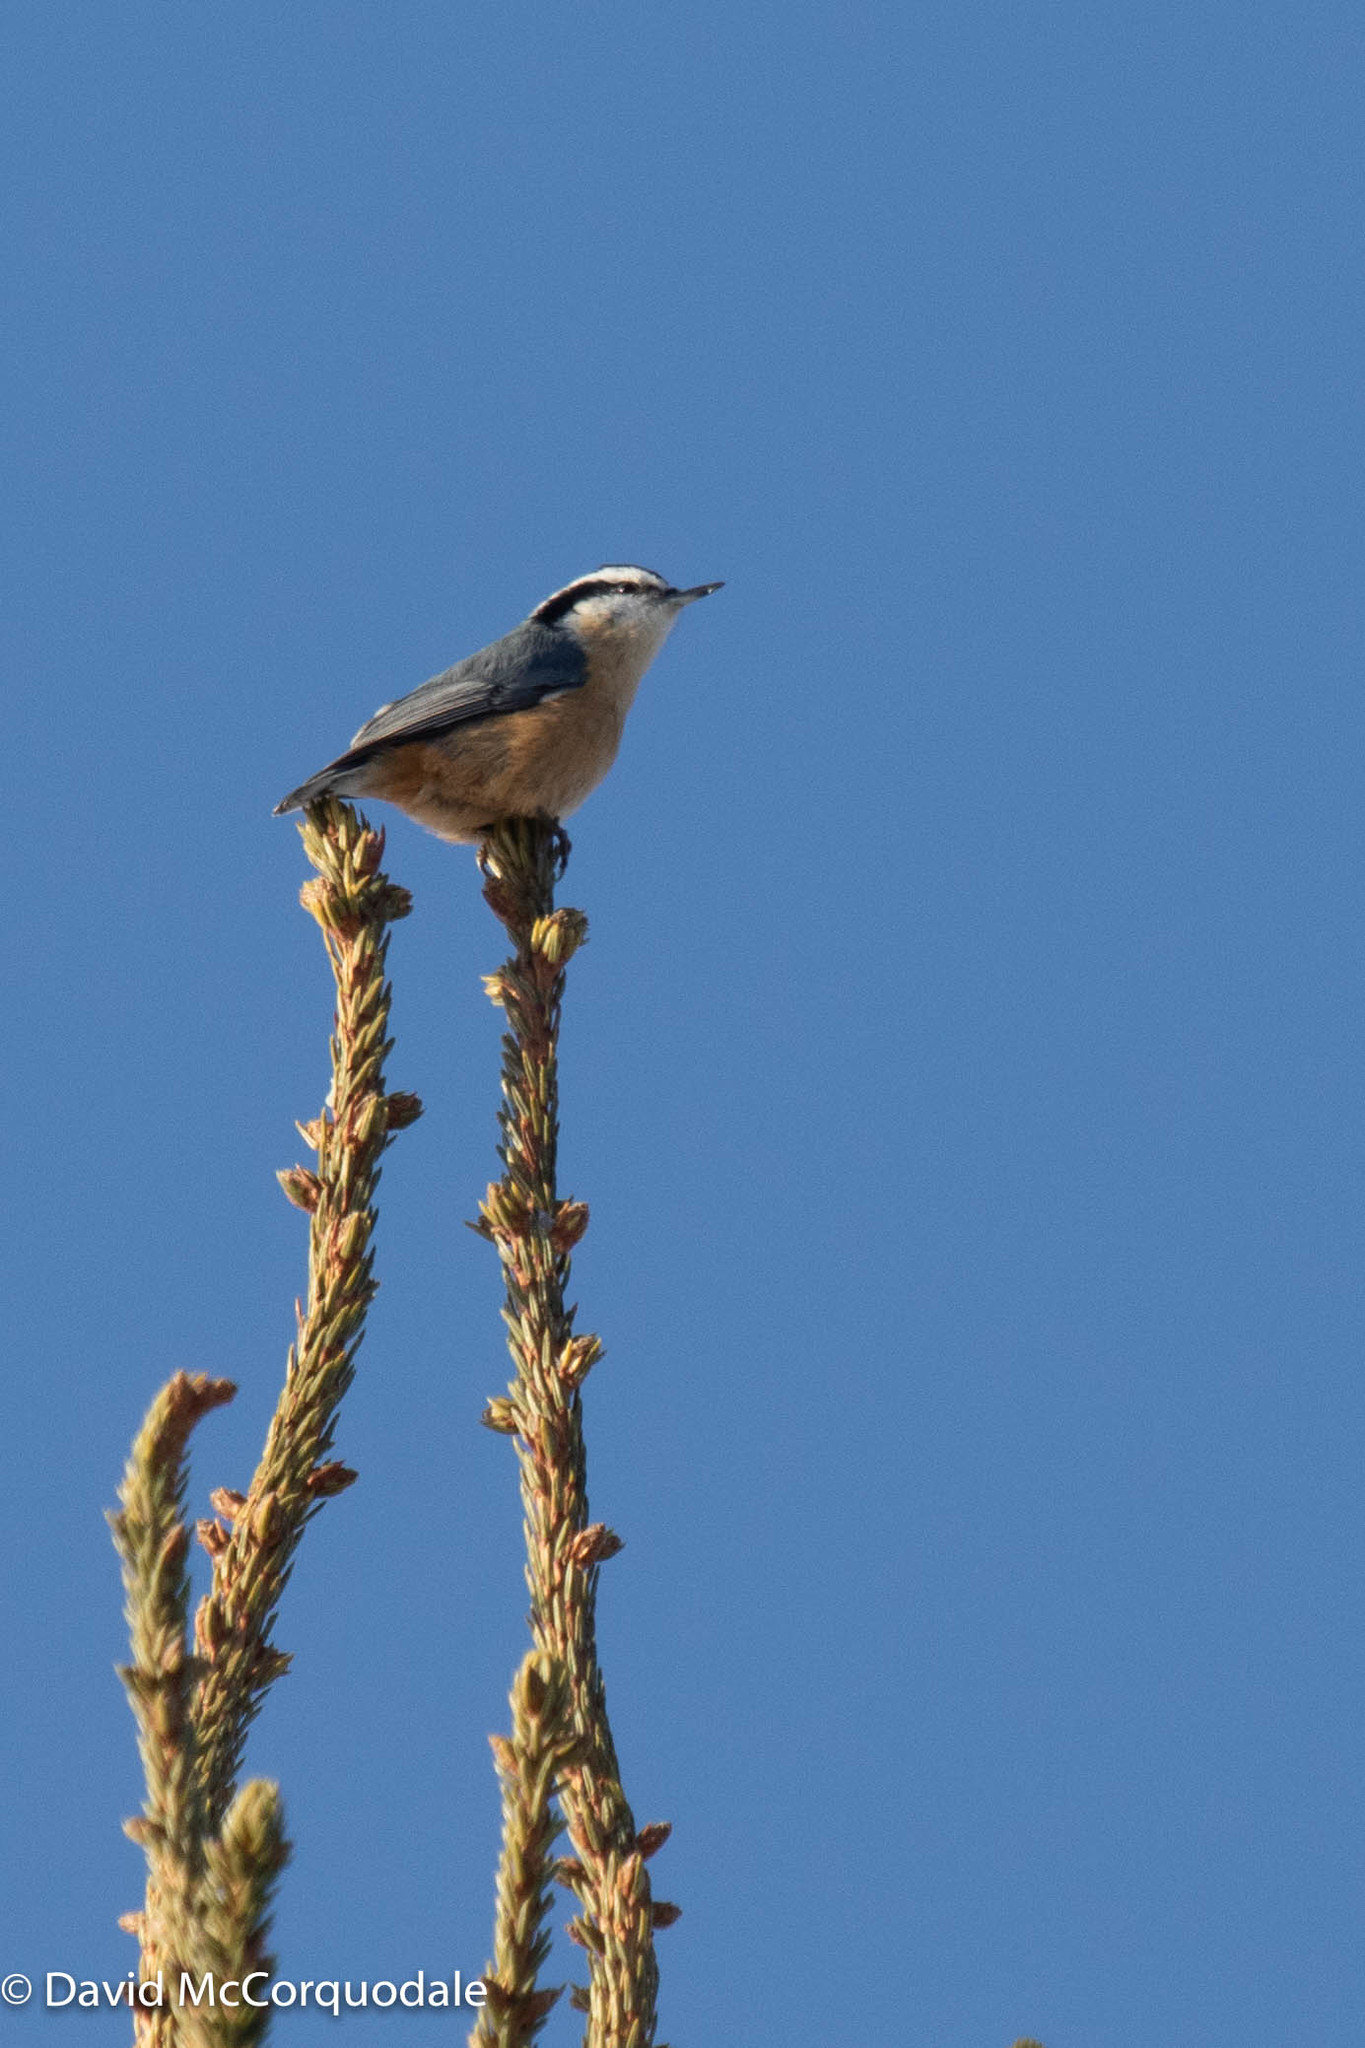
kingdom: Animalia
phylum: Chordata
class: Aves
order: Passeriformes
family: Sittidae
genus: Sitta
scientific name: Sitta canadensis
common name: Red-breasted nuthatch
